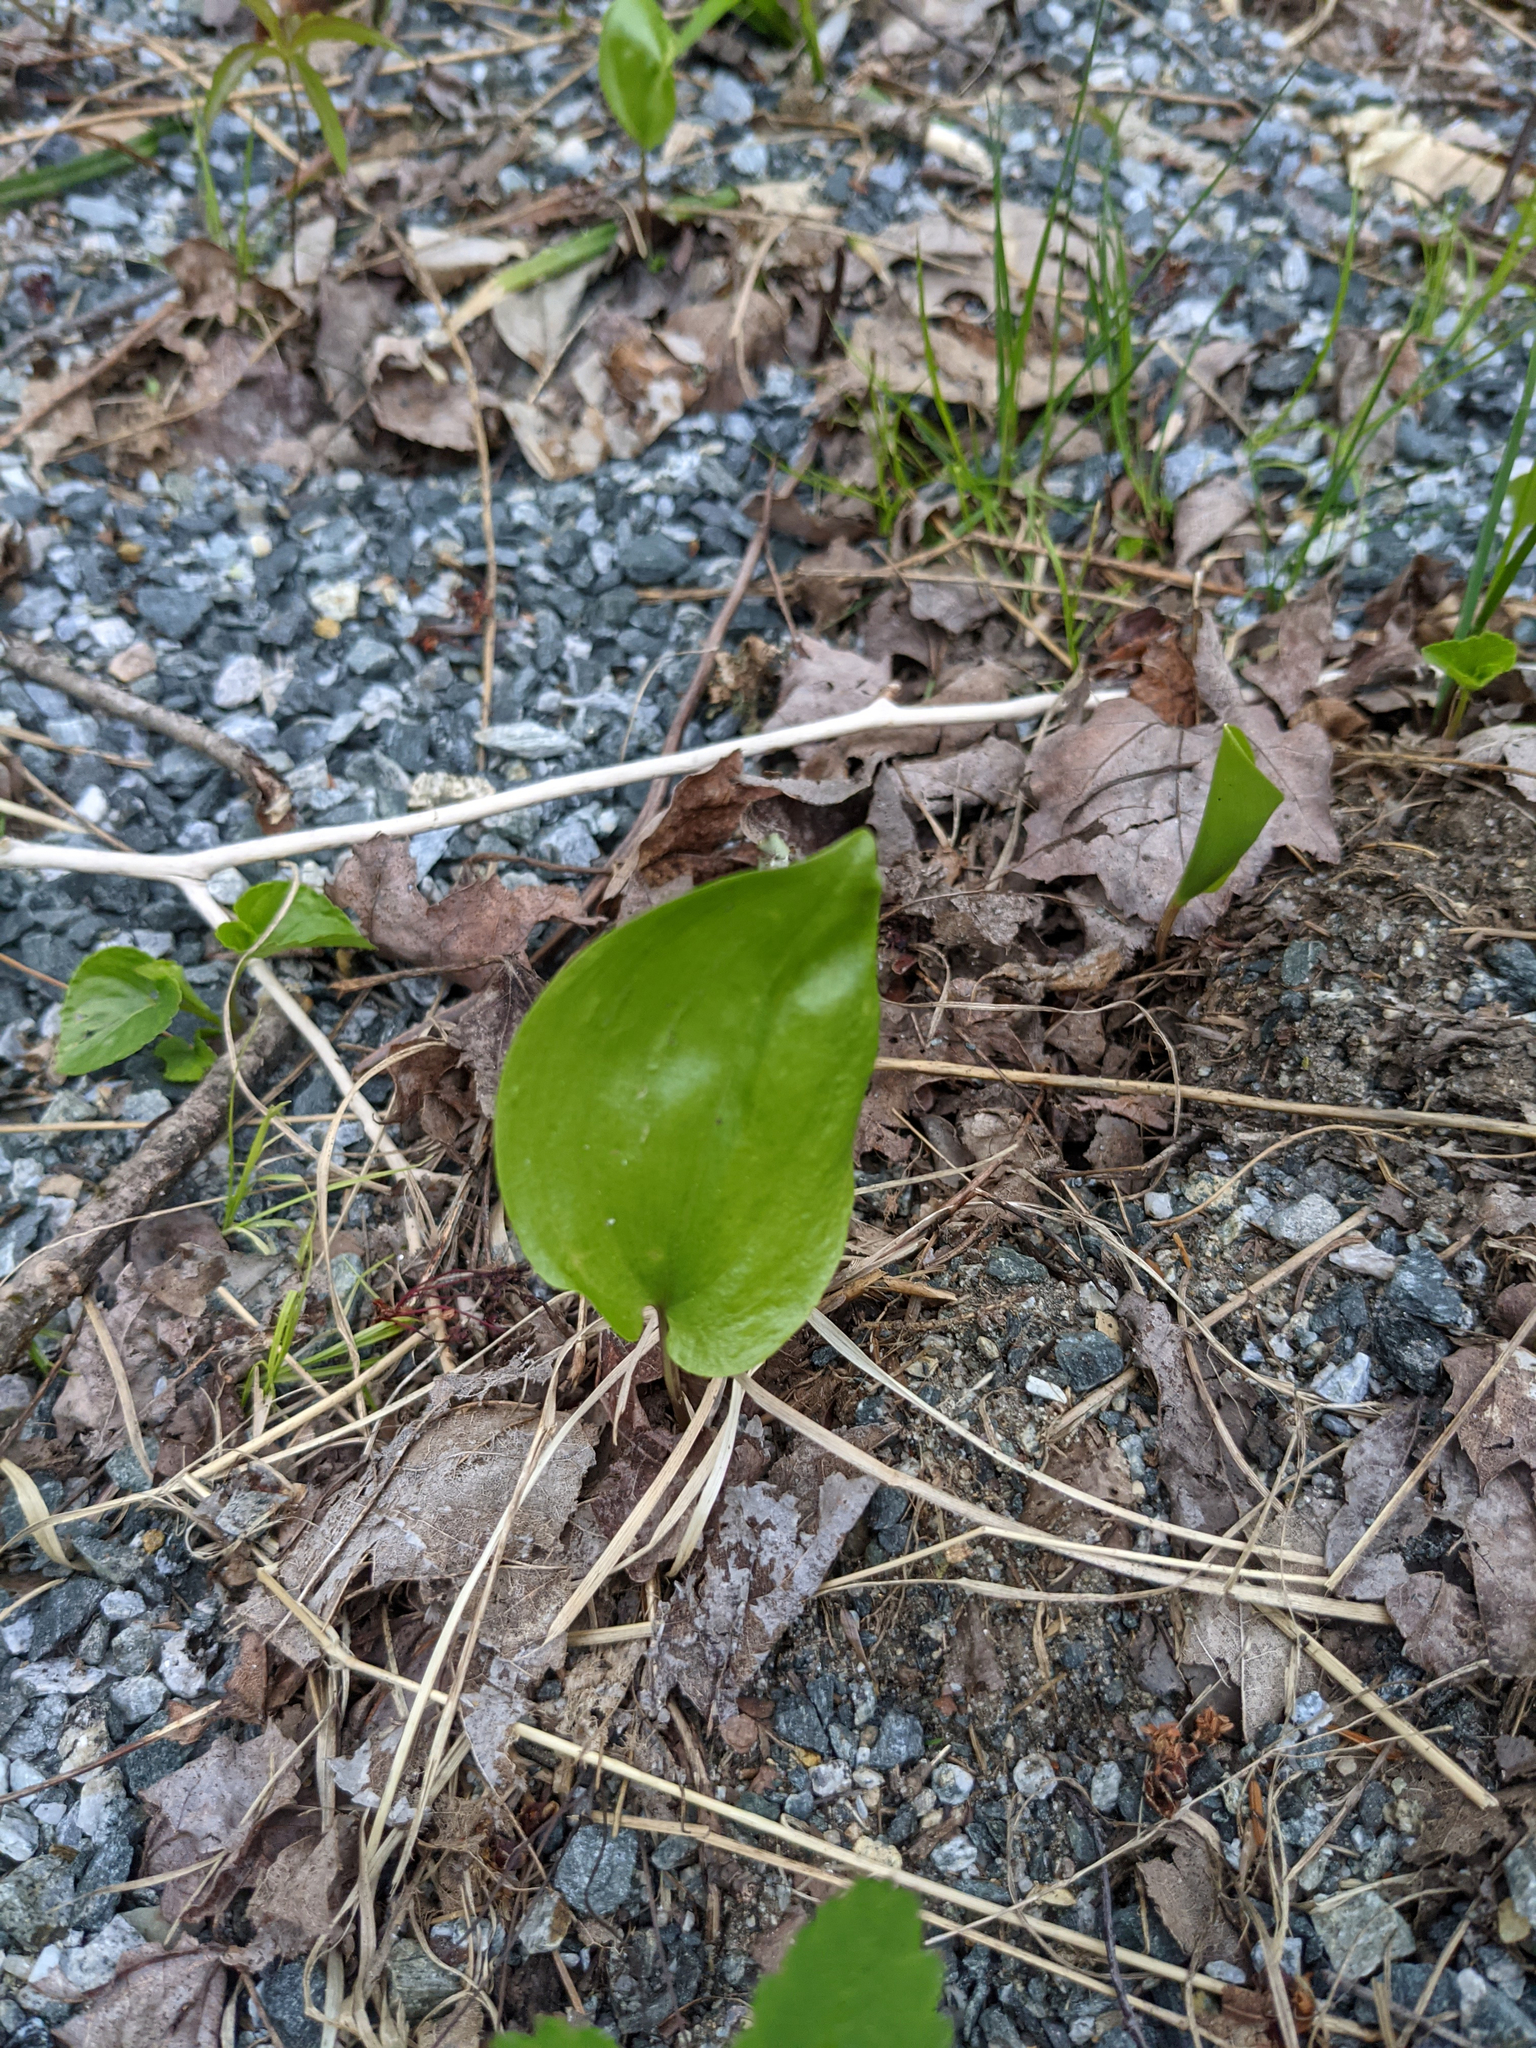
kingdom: Plantae
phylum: Tracheophyta
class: Liliopsida
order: Asparagales
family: Asparagaceae
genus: Maianthemum
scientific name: Maianthemum canadense
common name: False lily-of-the-valley
